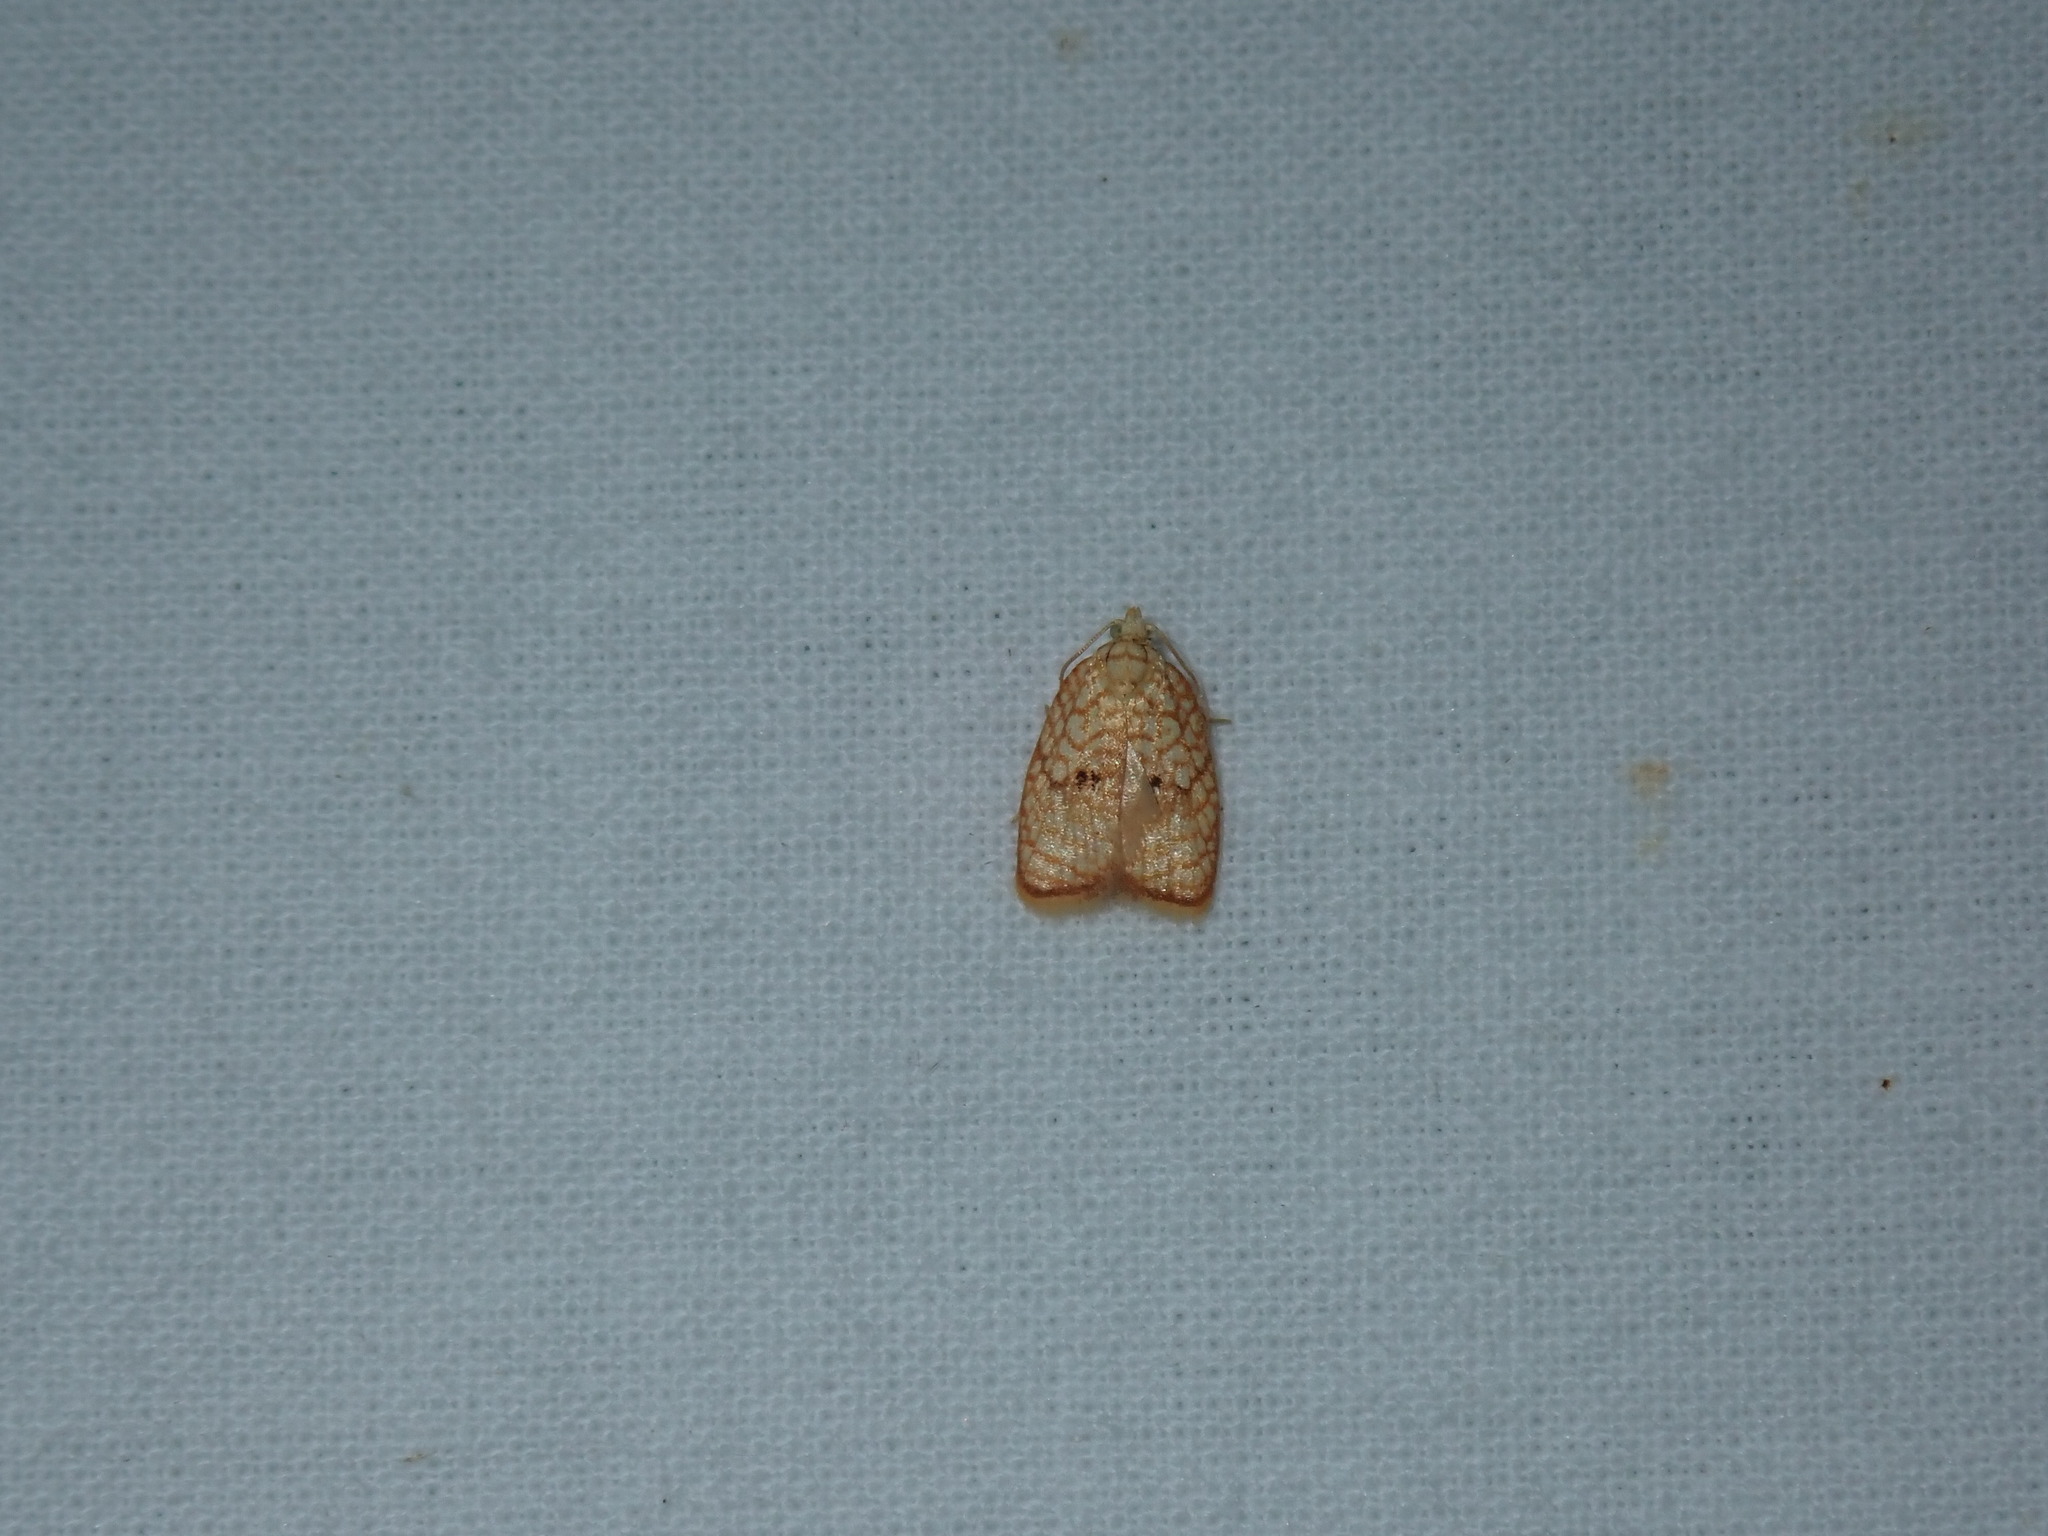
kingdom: Animalia
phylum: Arthropoda
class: Insecta
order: Lepidoptera
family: Tortricidae
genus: Acleris
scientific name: Acleris forsskaleana
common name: Maple button
